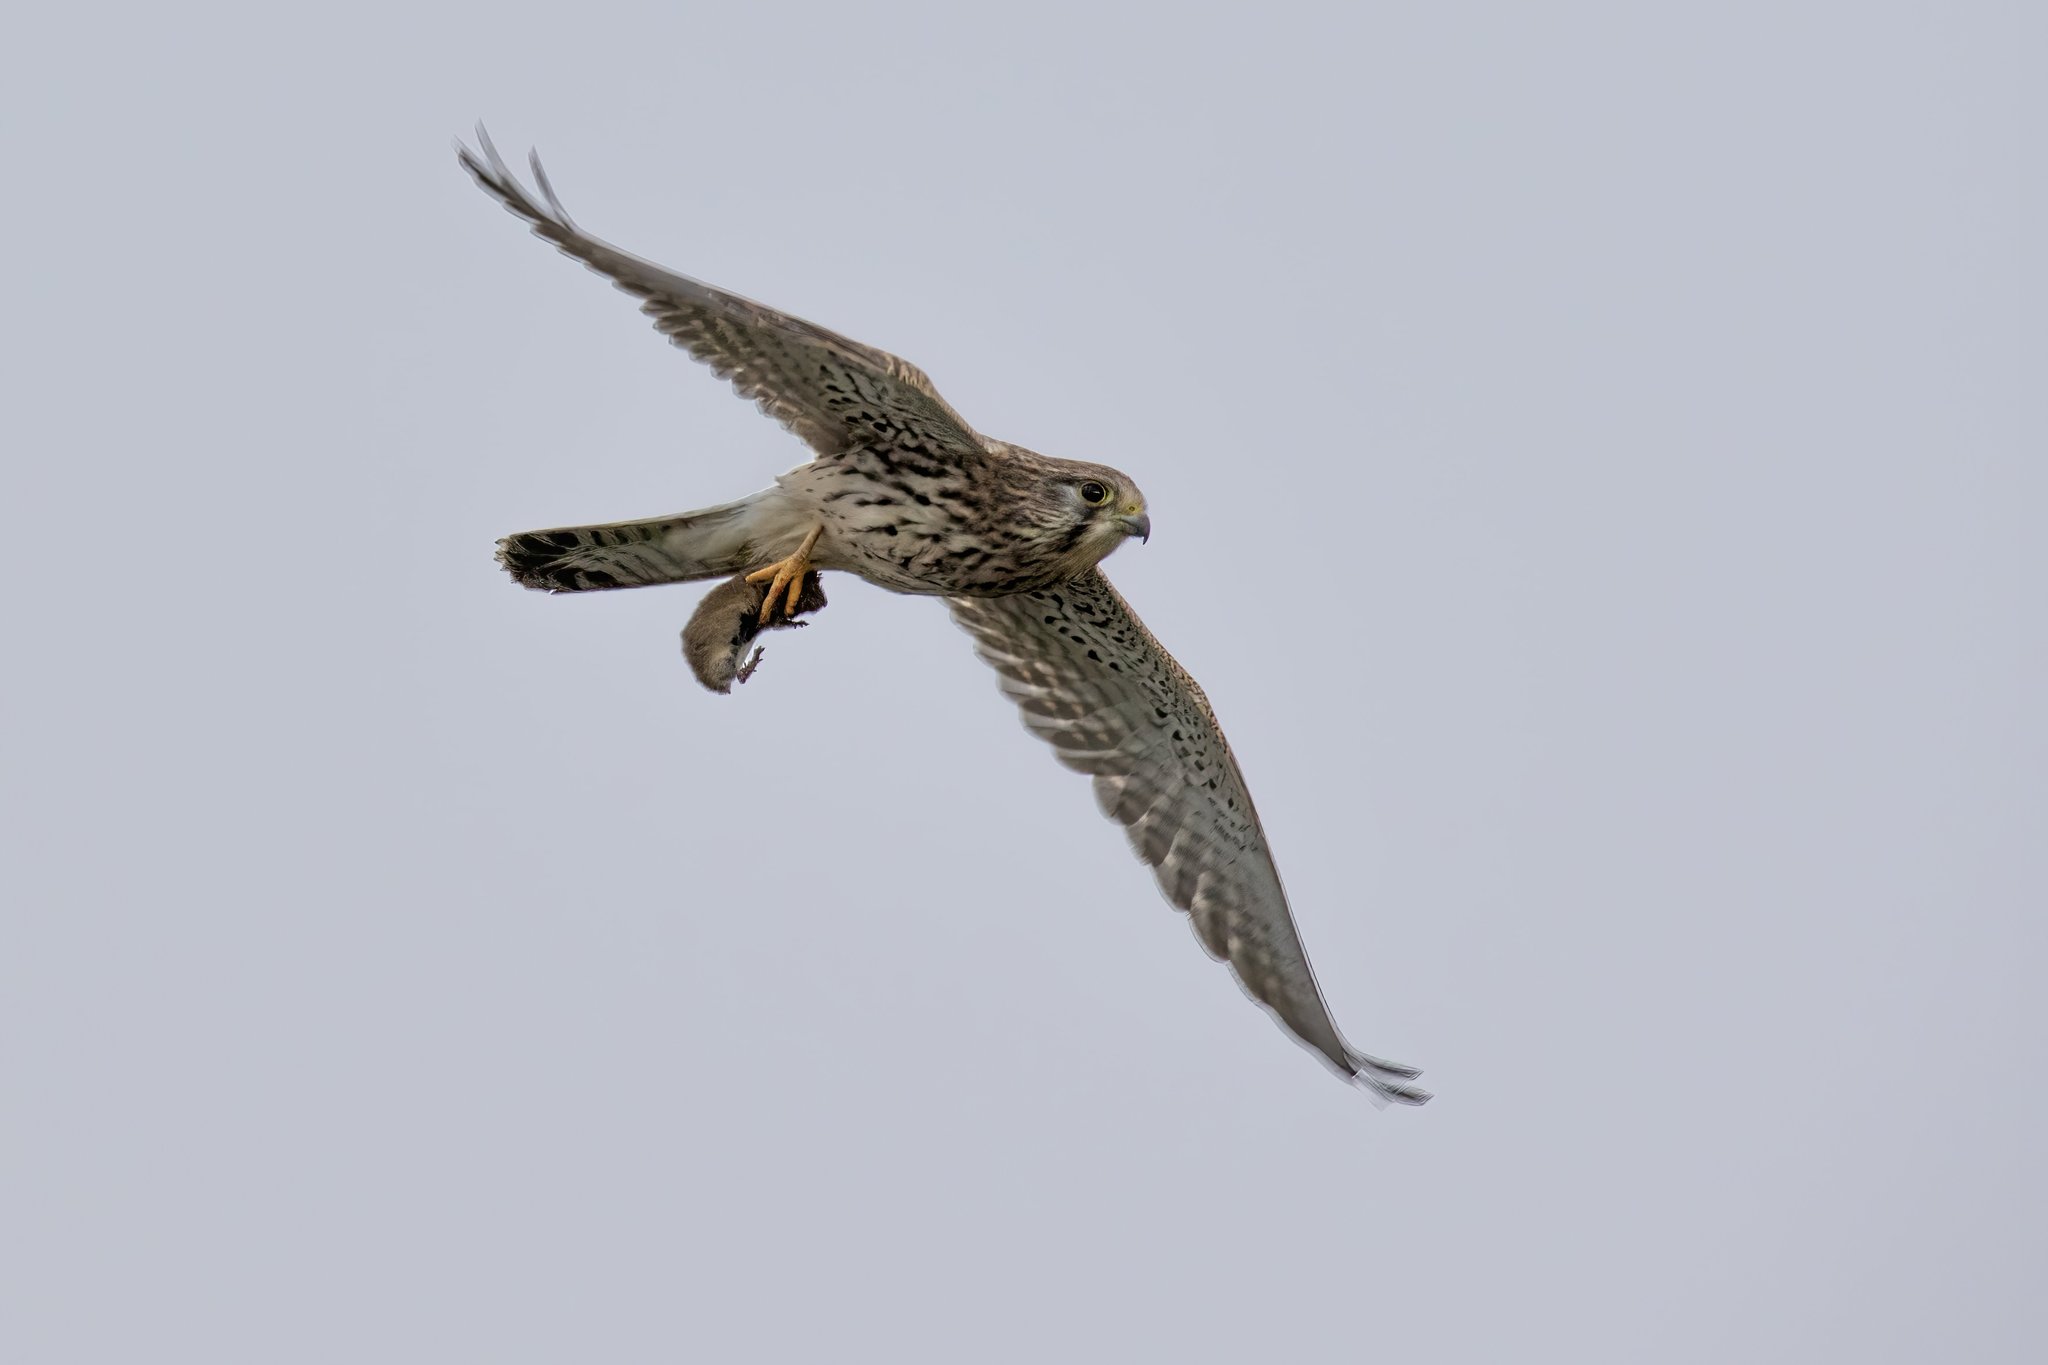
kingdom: Animalia
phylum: Chordata
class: Aves
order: Falconiformes
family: Falconidae
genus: Falco
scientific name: Falco tinnunculus
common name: Common kestrel
